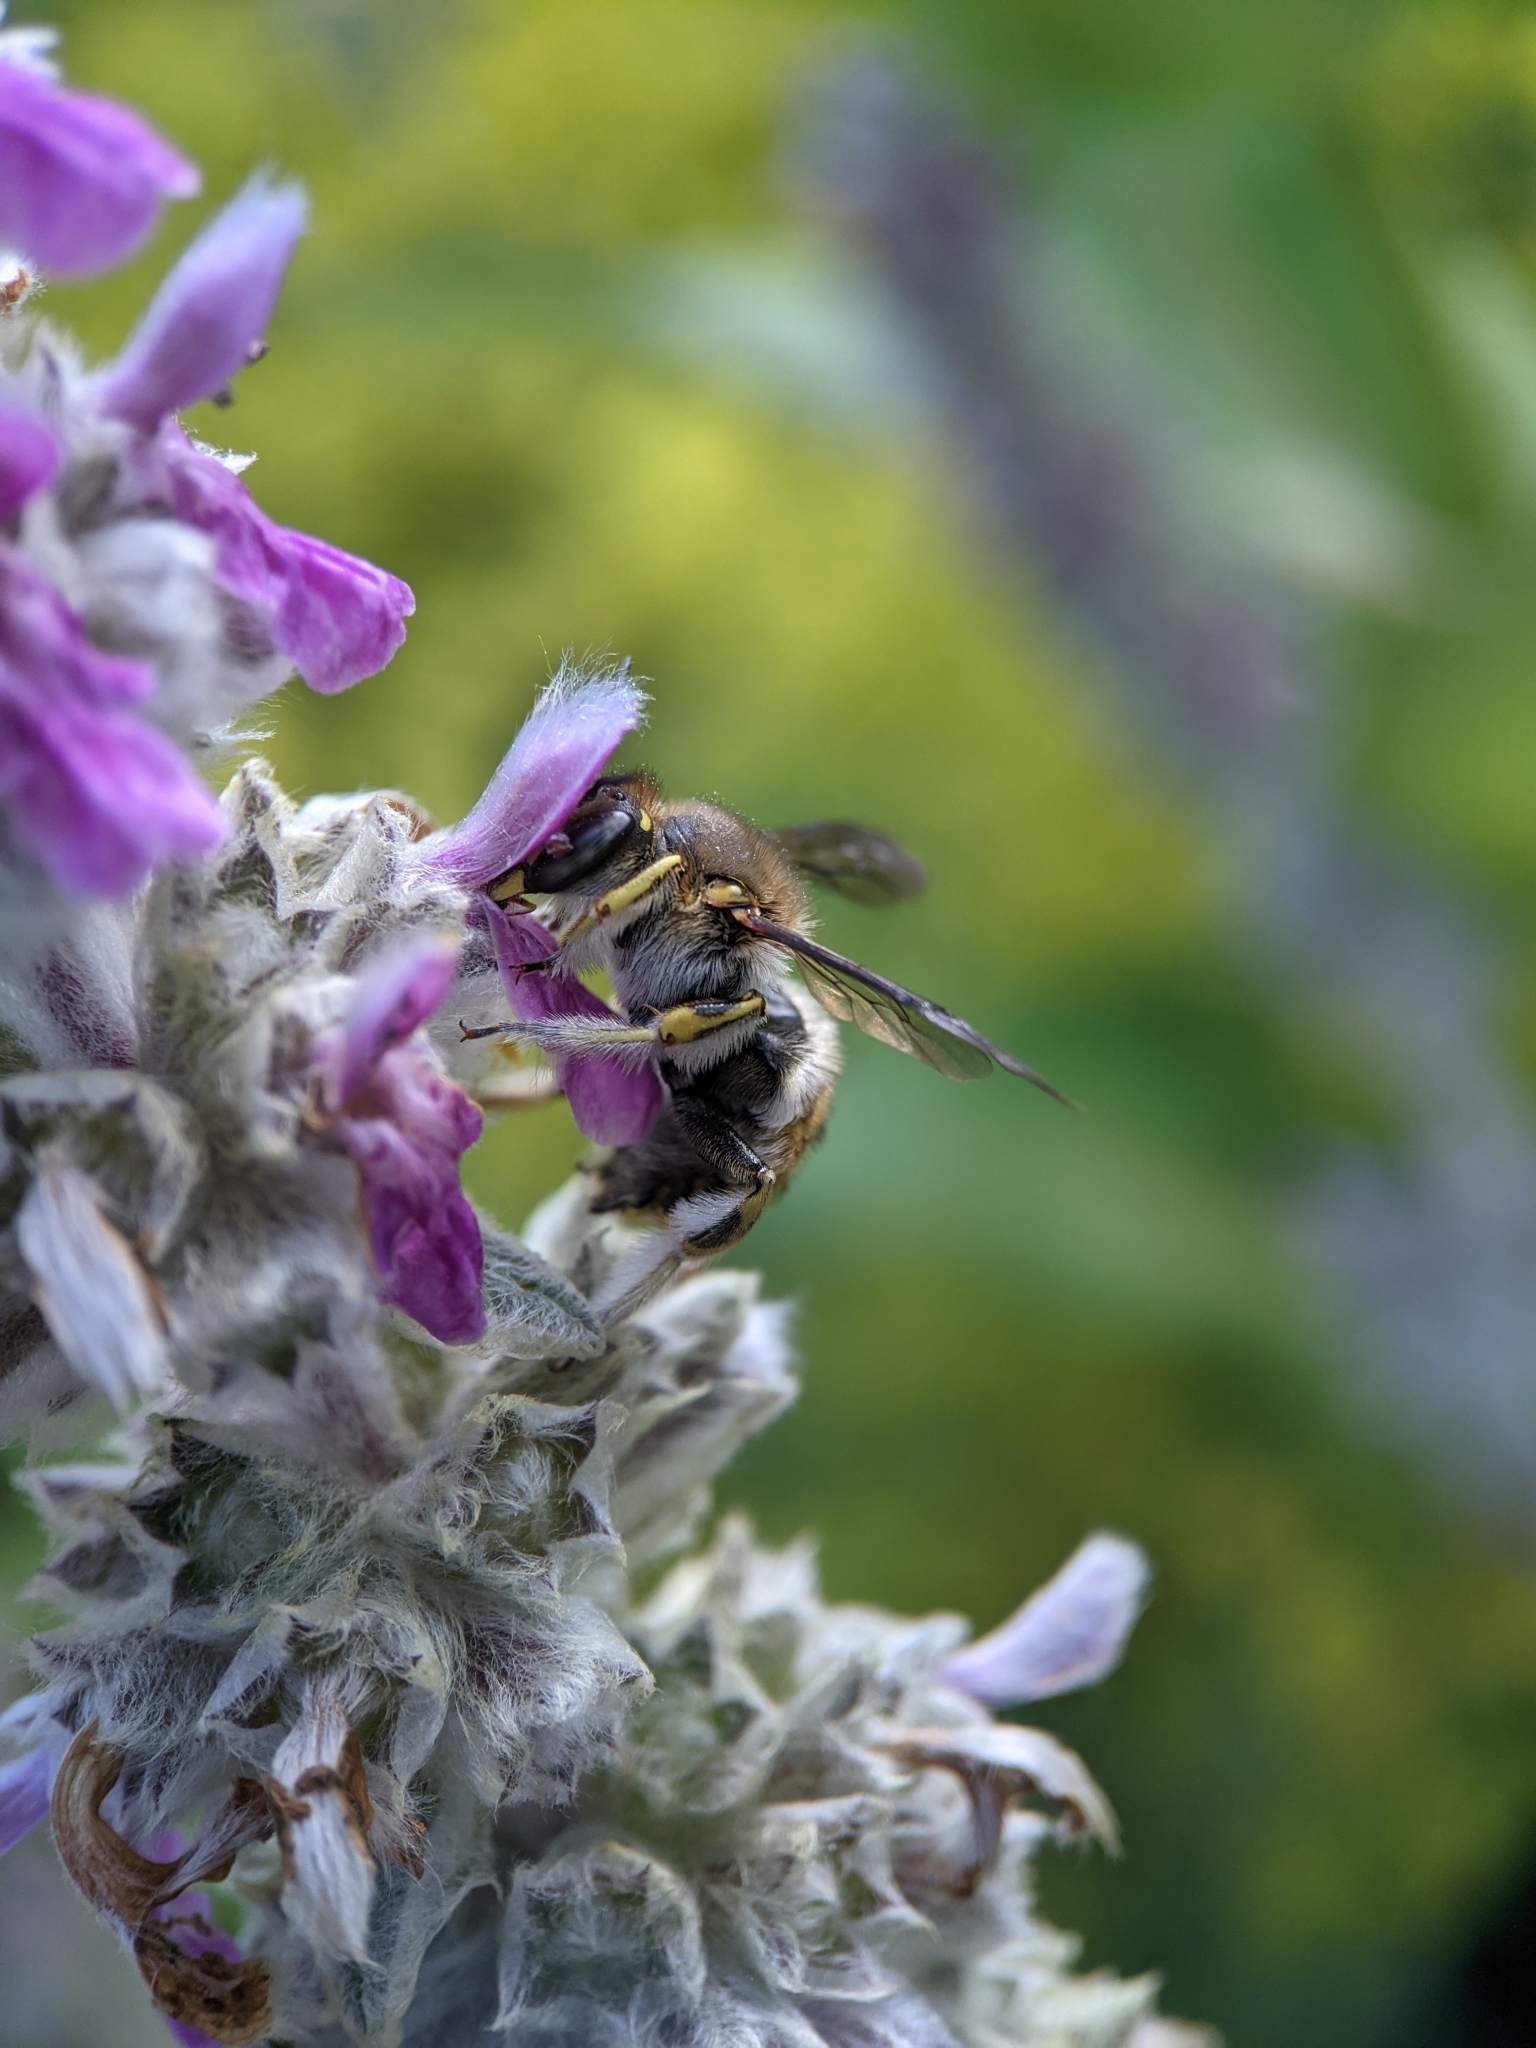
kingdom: Animalia
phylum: Arthropoda
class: Insecta
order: Hymenoptera
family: Megachilidae
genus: Anthidium
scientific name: Anthidium manicatum
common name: Wool carder bee
